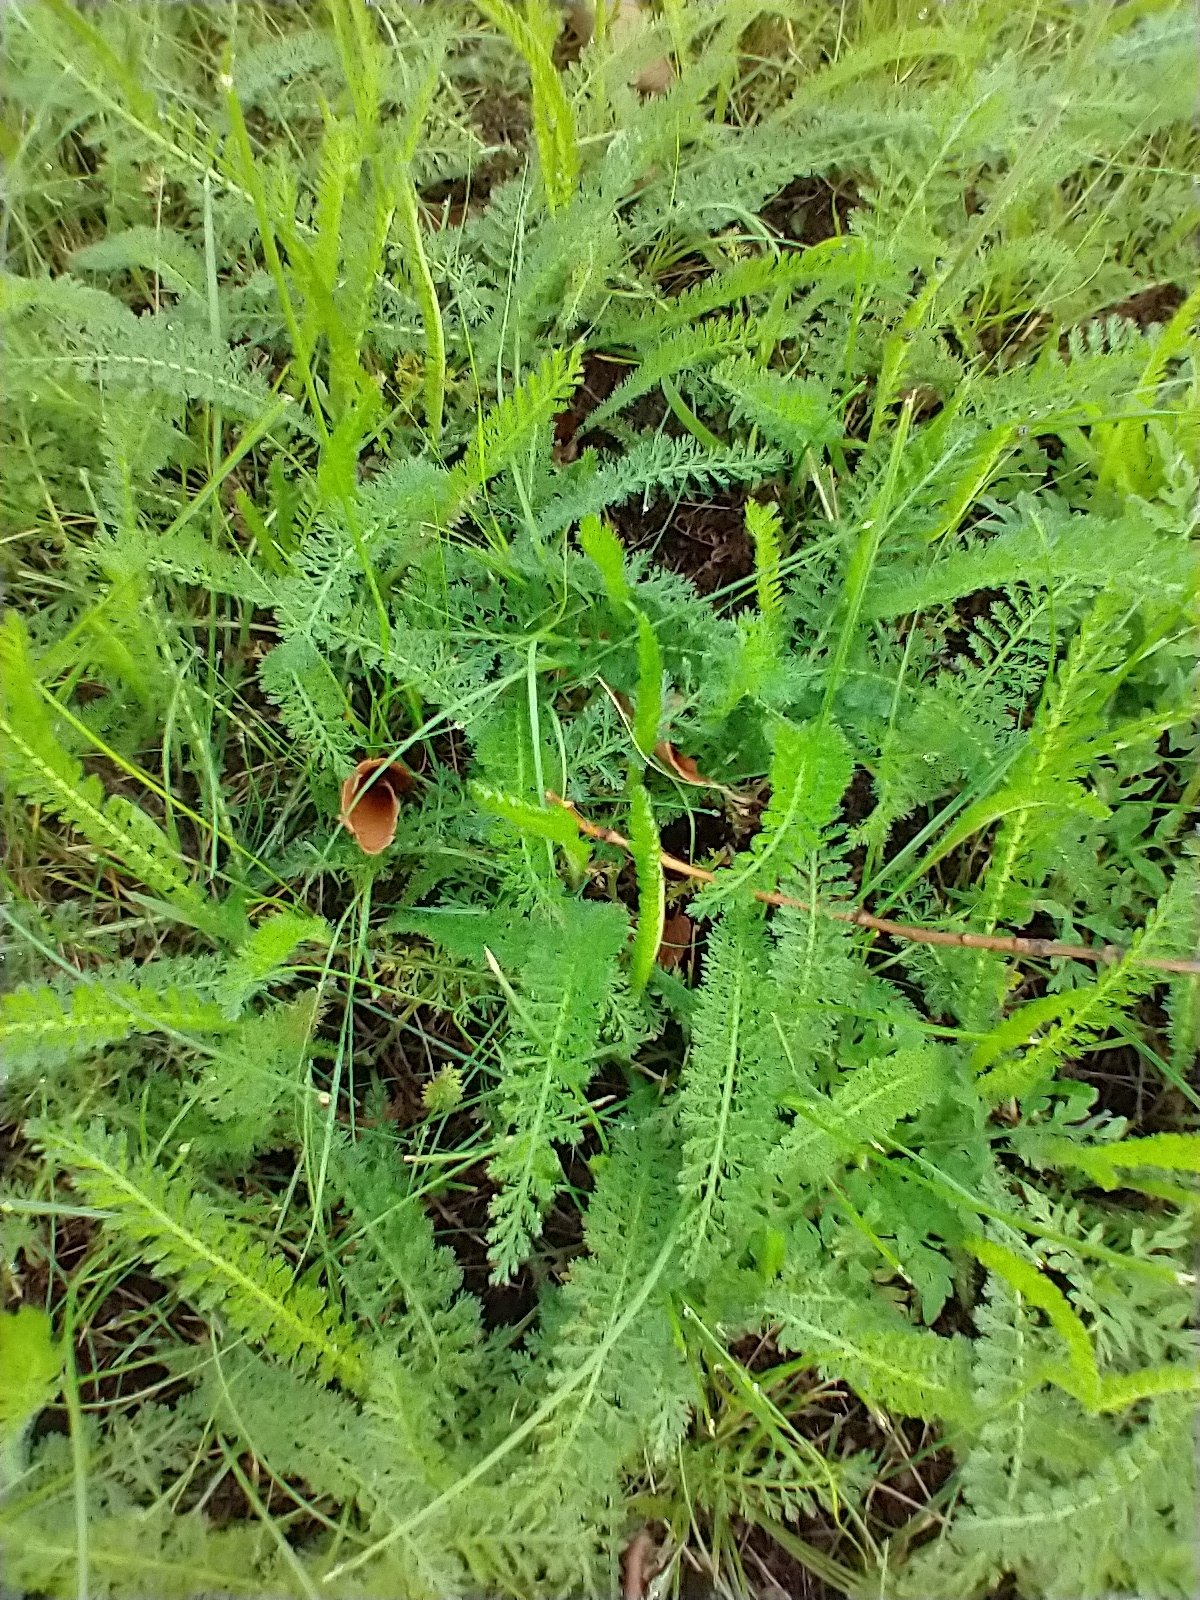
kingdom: Plantae
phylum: Tracheophyta
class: Magnoliopsida
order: Asterales
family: Asteraceae
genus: Achillea
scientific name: Achillea millefolium
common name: Yarrow
